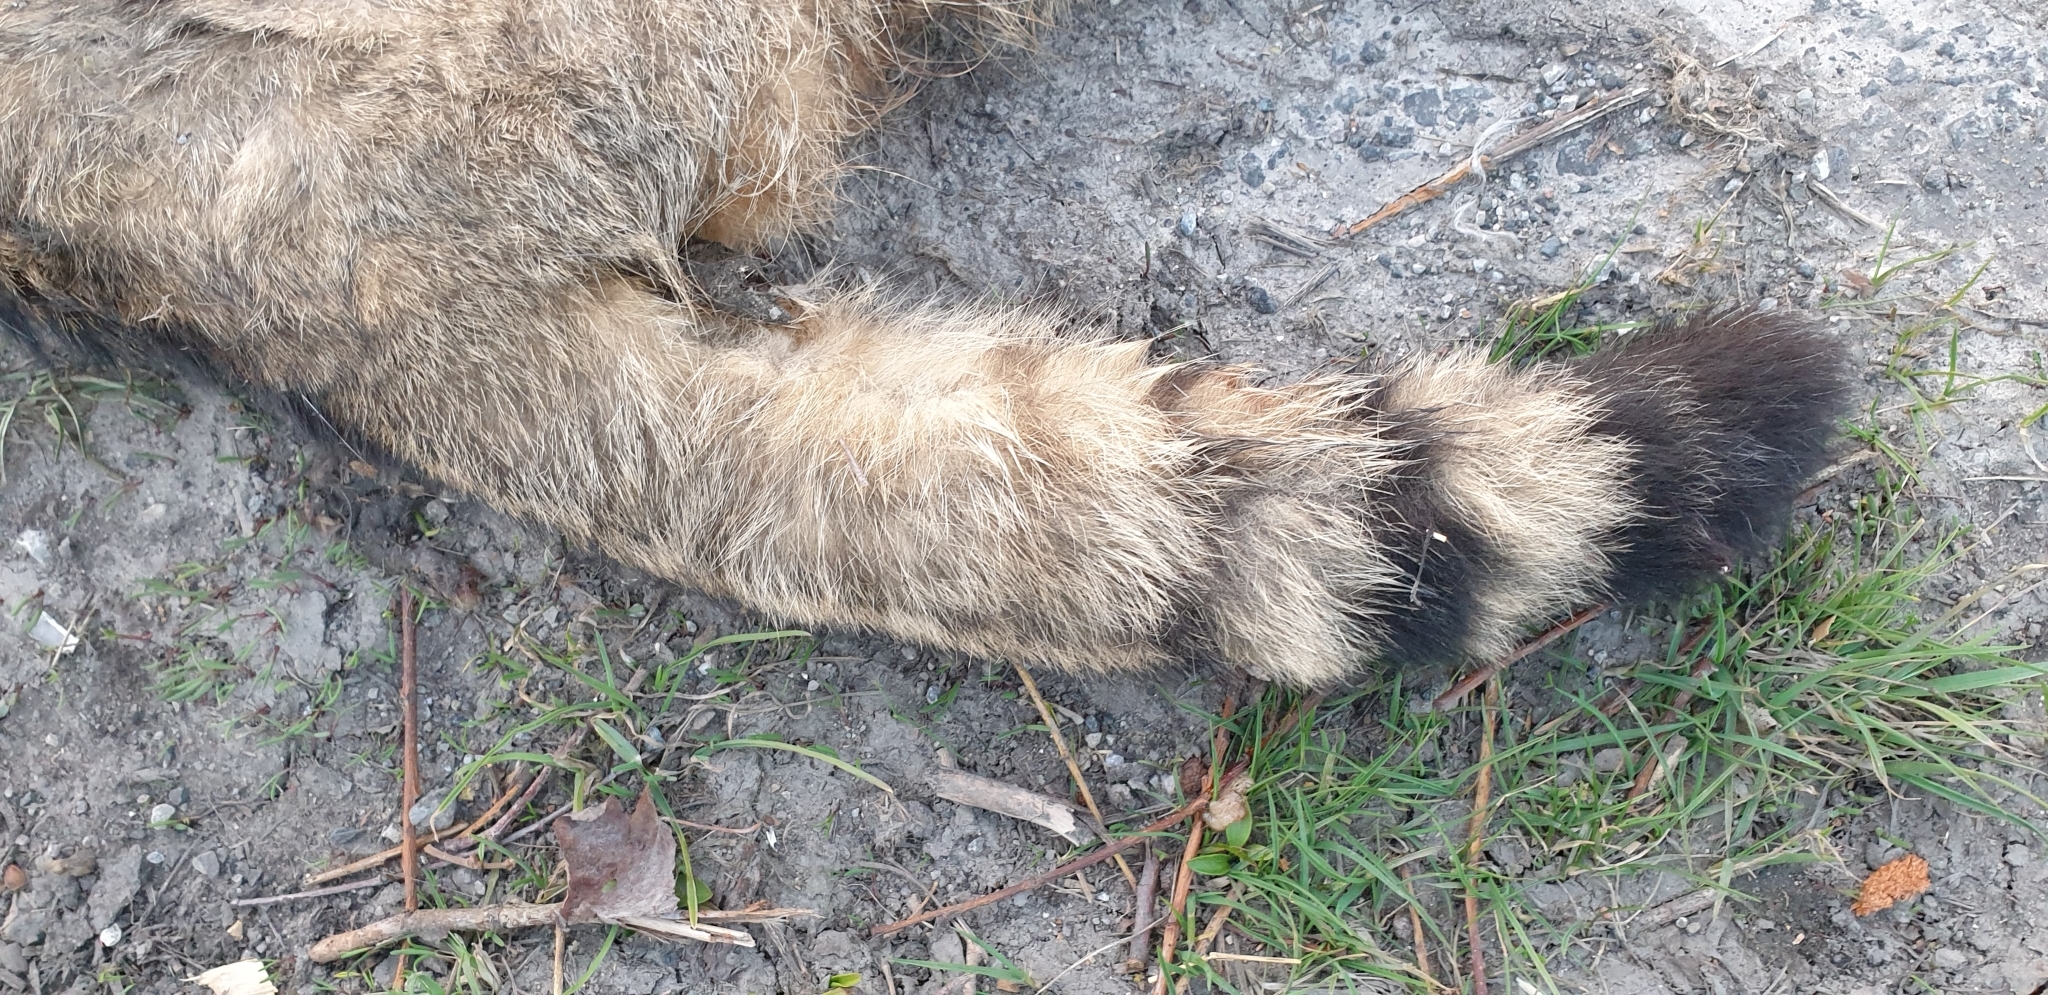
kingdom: Animalia
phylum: Chordata
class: Mammalia
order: Carnivora
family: Felidae
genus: Felis
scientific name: Felis silvestris
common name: Wildcat
